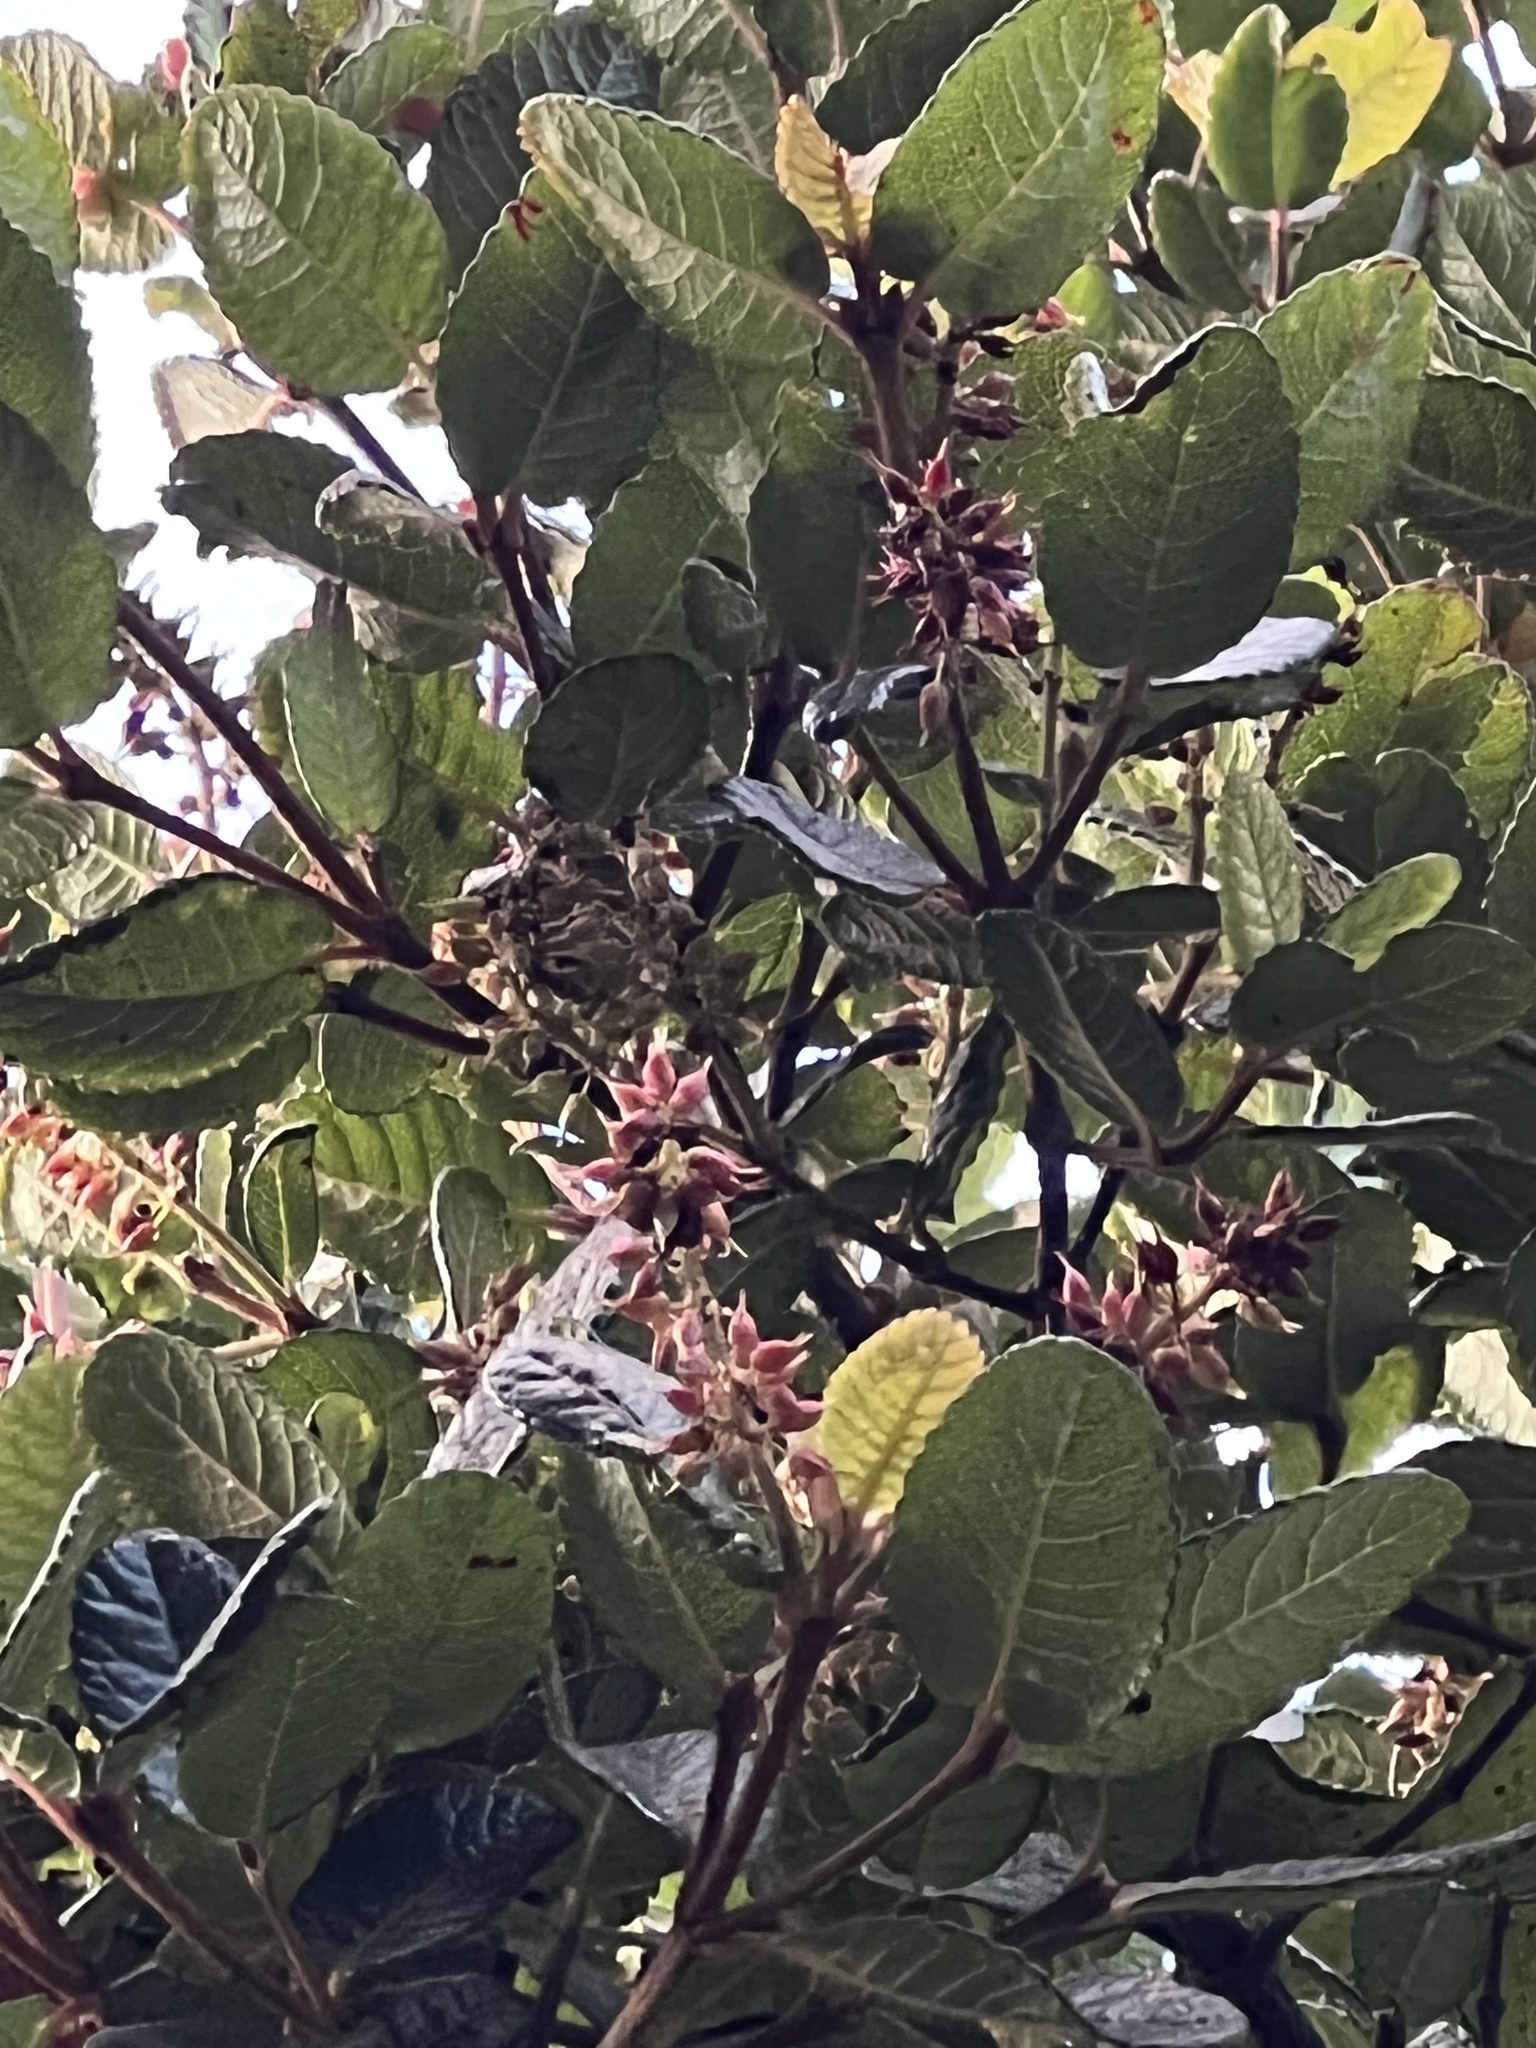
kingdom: Plantae
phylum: Tracheophyta
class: Magnoliopsida
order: Oxalidales
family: Cunoniaceae
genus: Weinmannia
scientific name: Weinmannia rollottii
